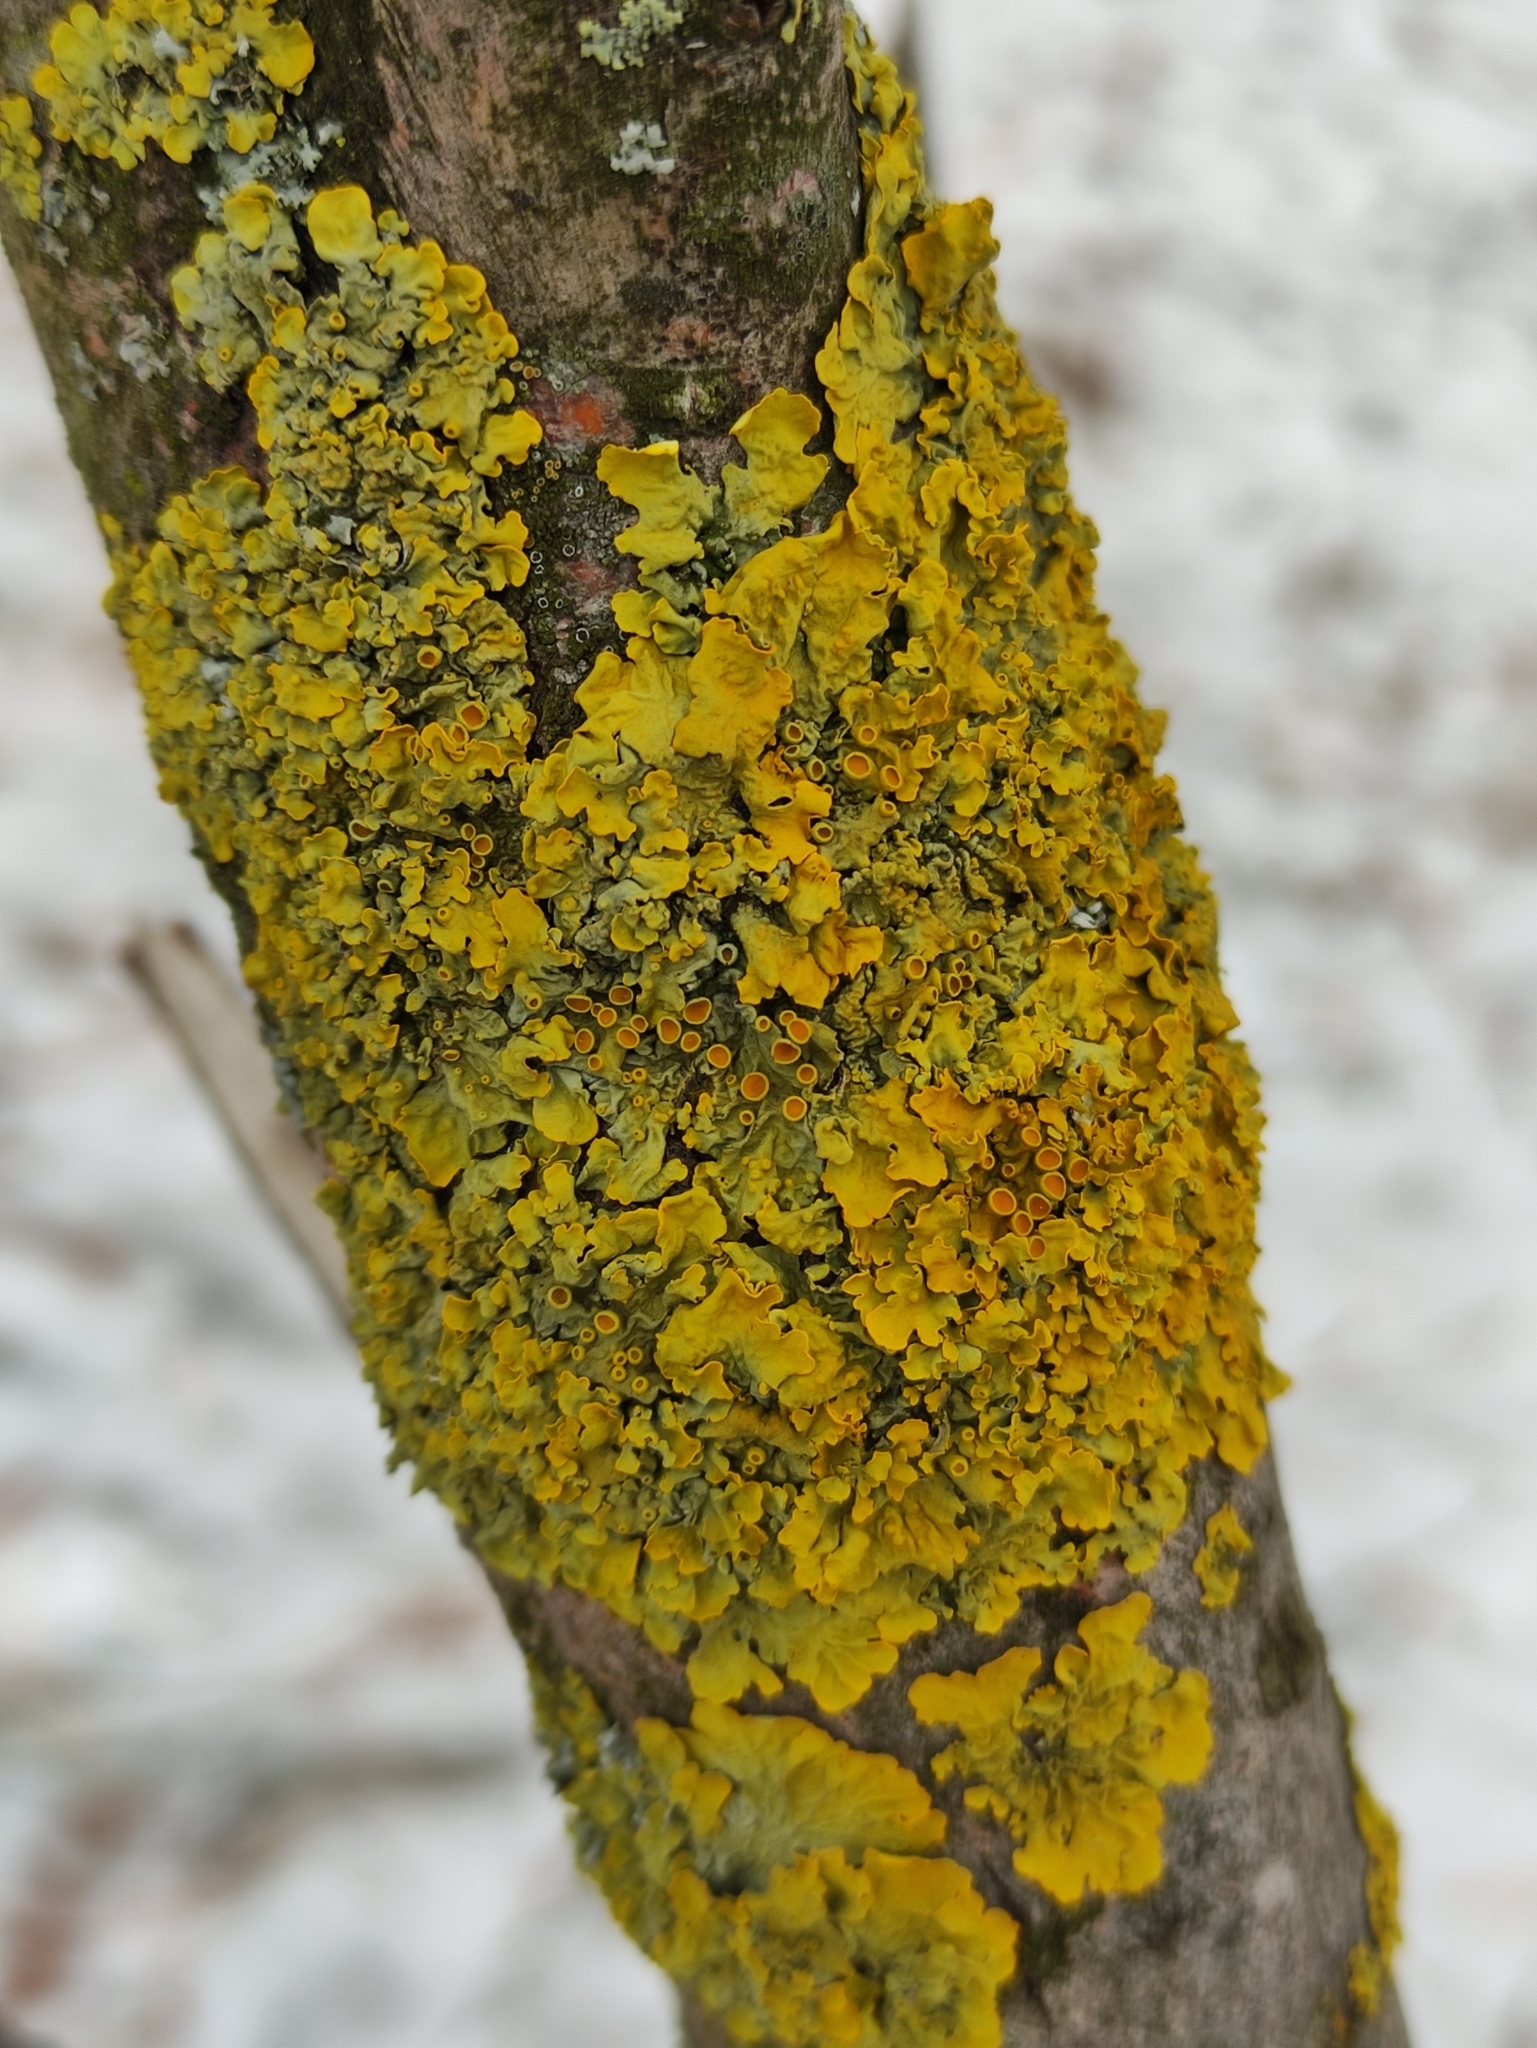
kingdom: Fungi
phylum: Ascomycota
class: Lecanoromycetes
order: Teloschistales
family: Teloschistaceae
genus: Xanthoria
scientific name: Xanthoria parietina
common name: Common orange lichen
